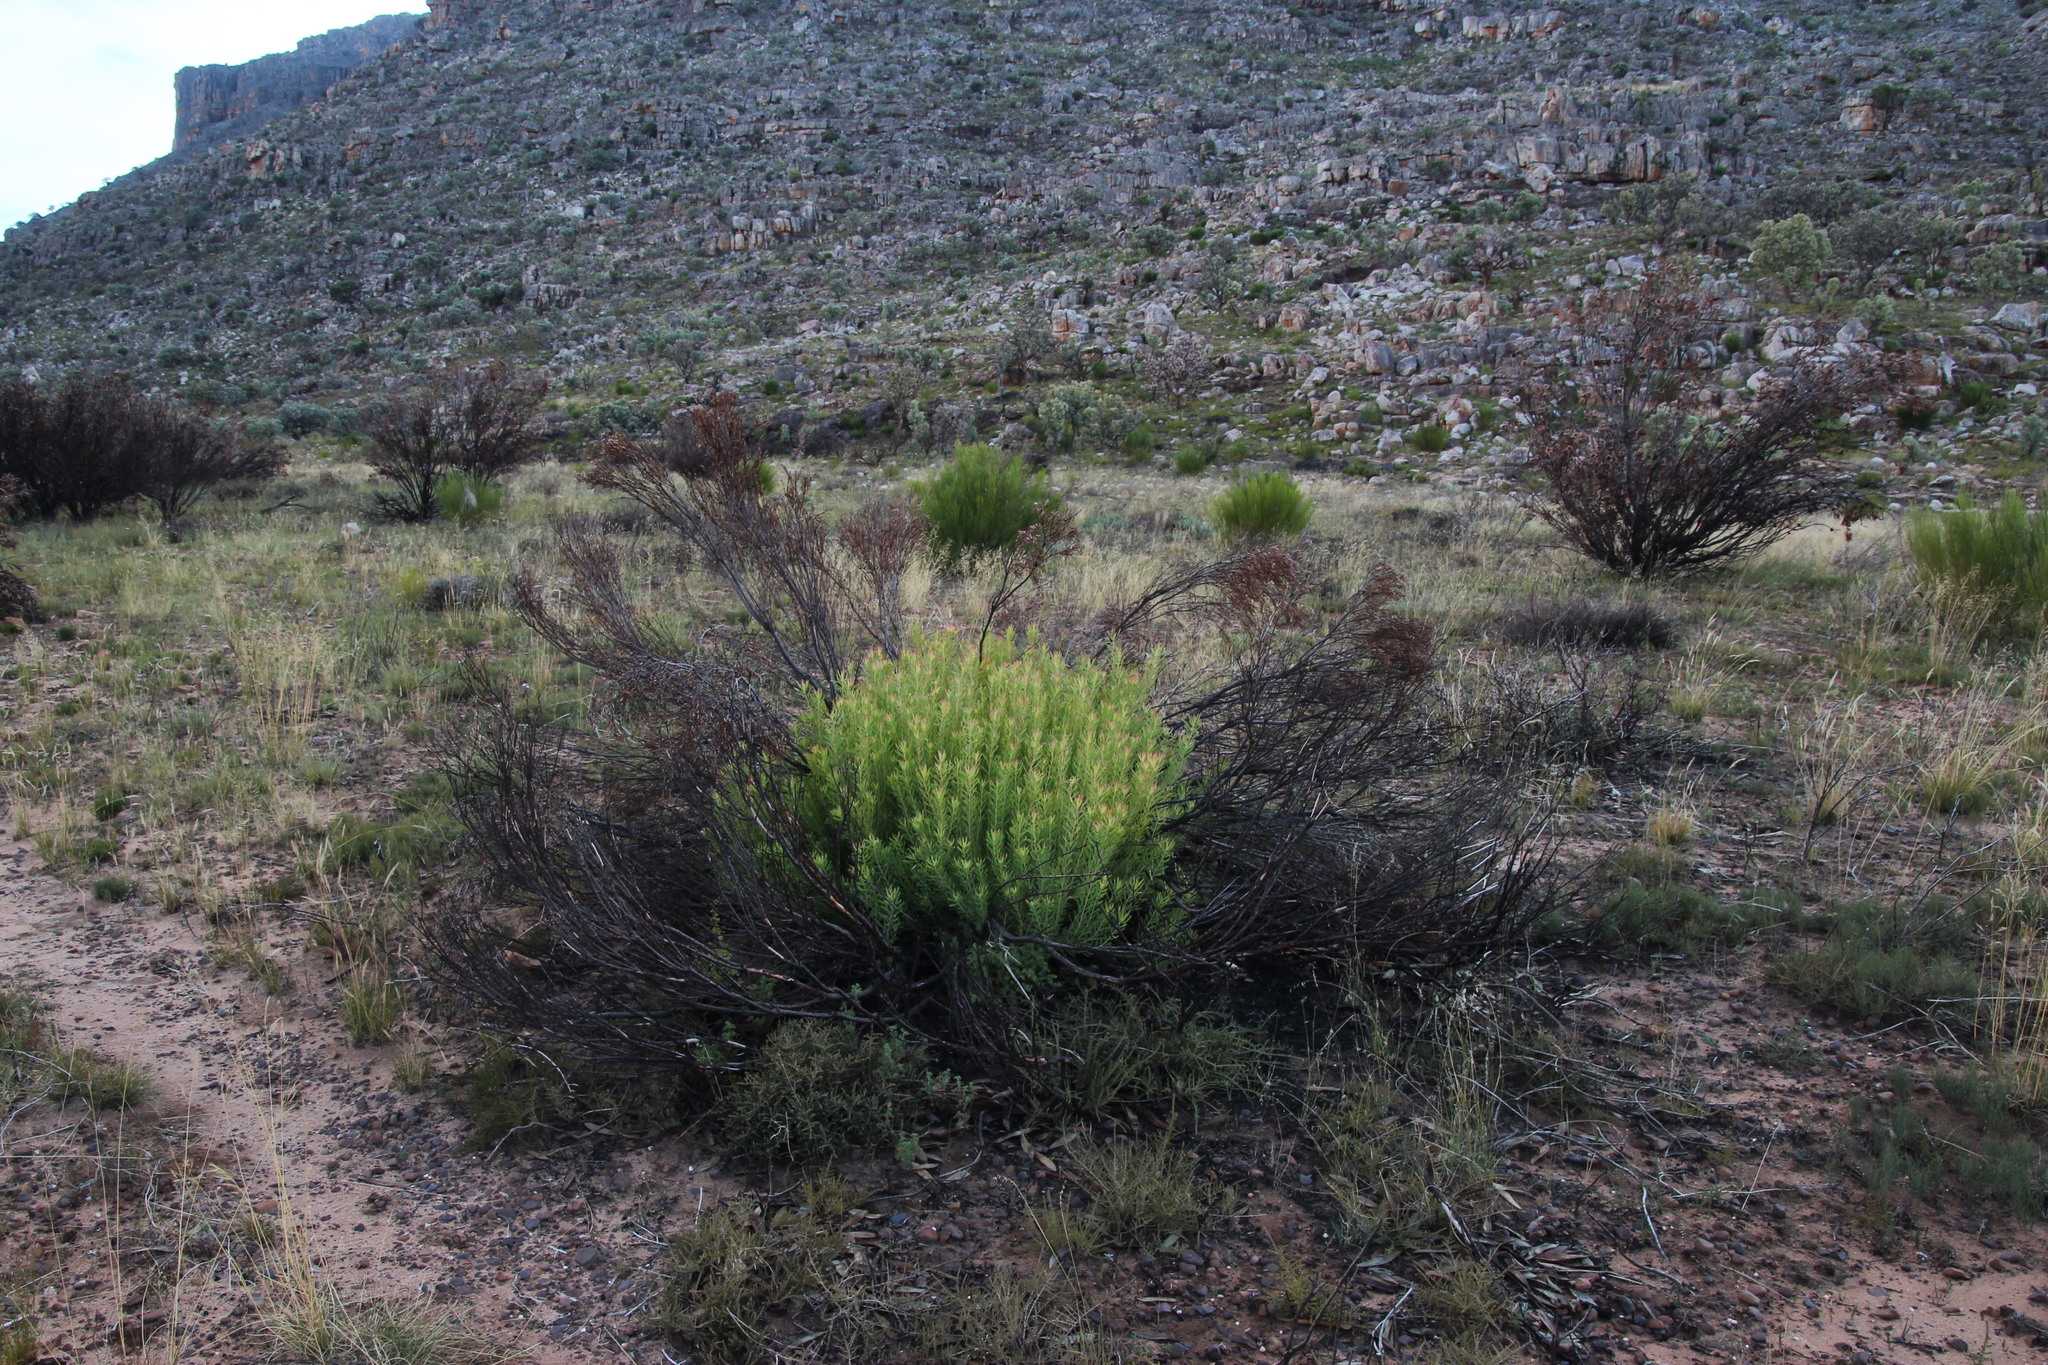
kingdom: Plantae
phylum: Tracheophyta
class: Magnoliopsida
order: Proteales
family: Proteaceae
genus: Leucadendron
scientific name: Leucadendron salignum
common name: Common sunshine conebush
